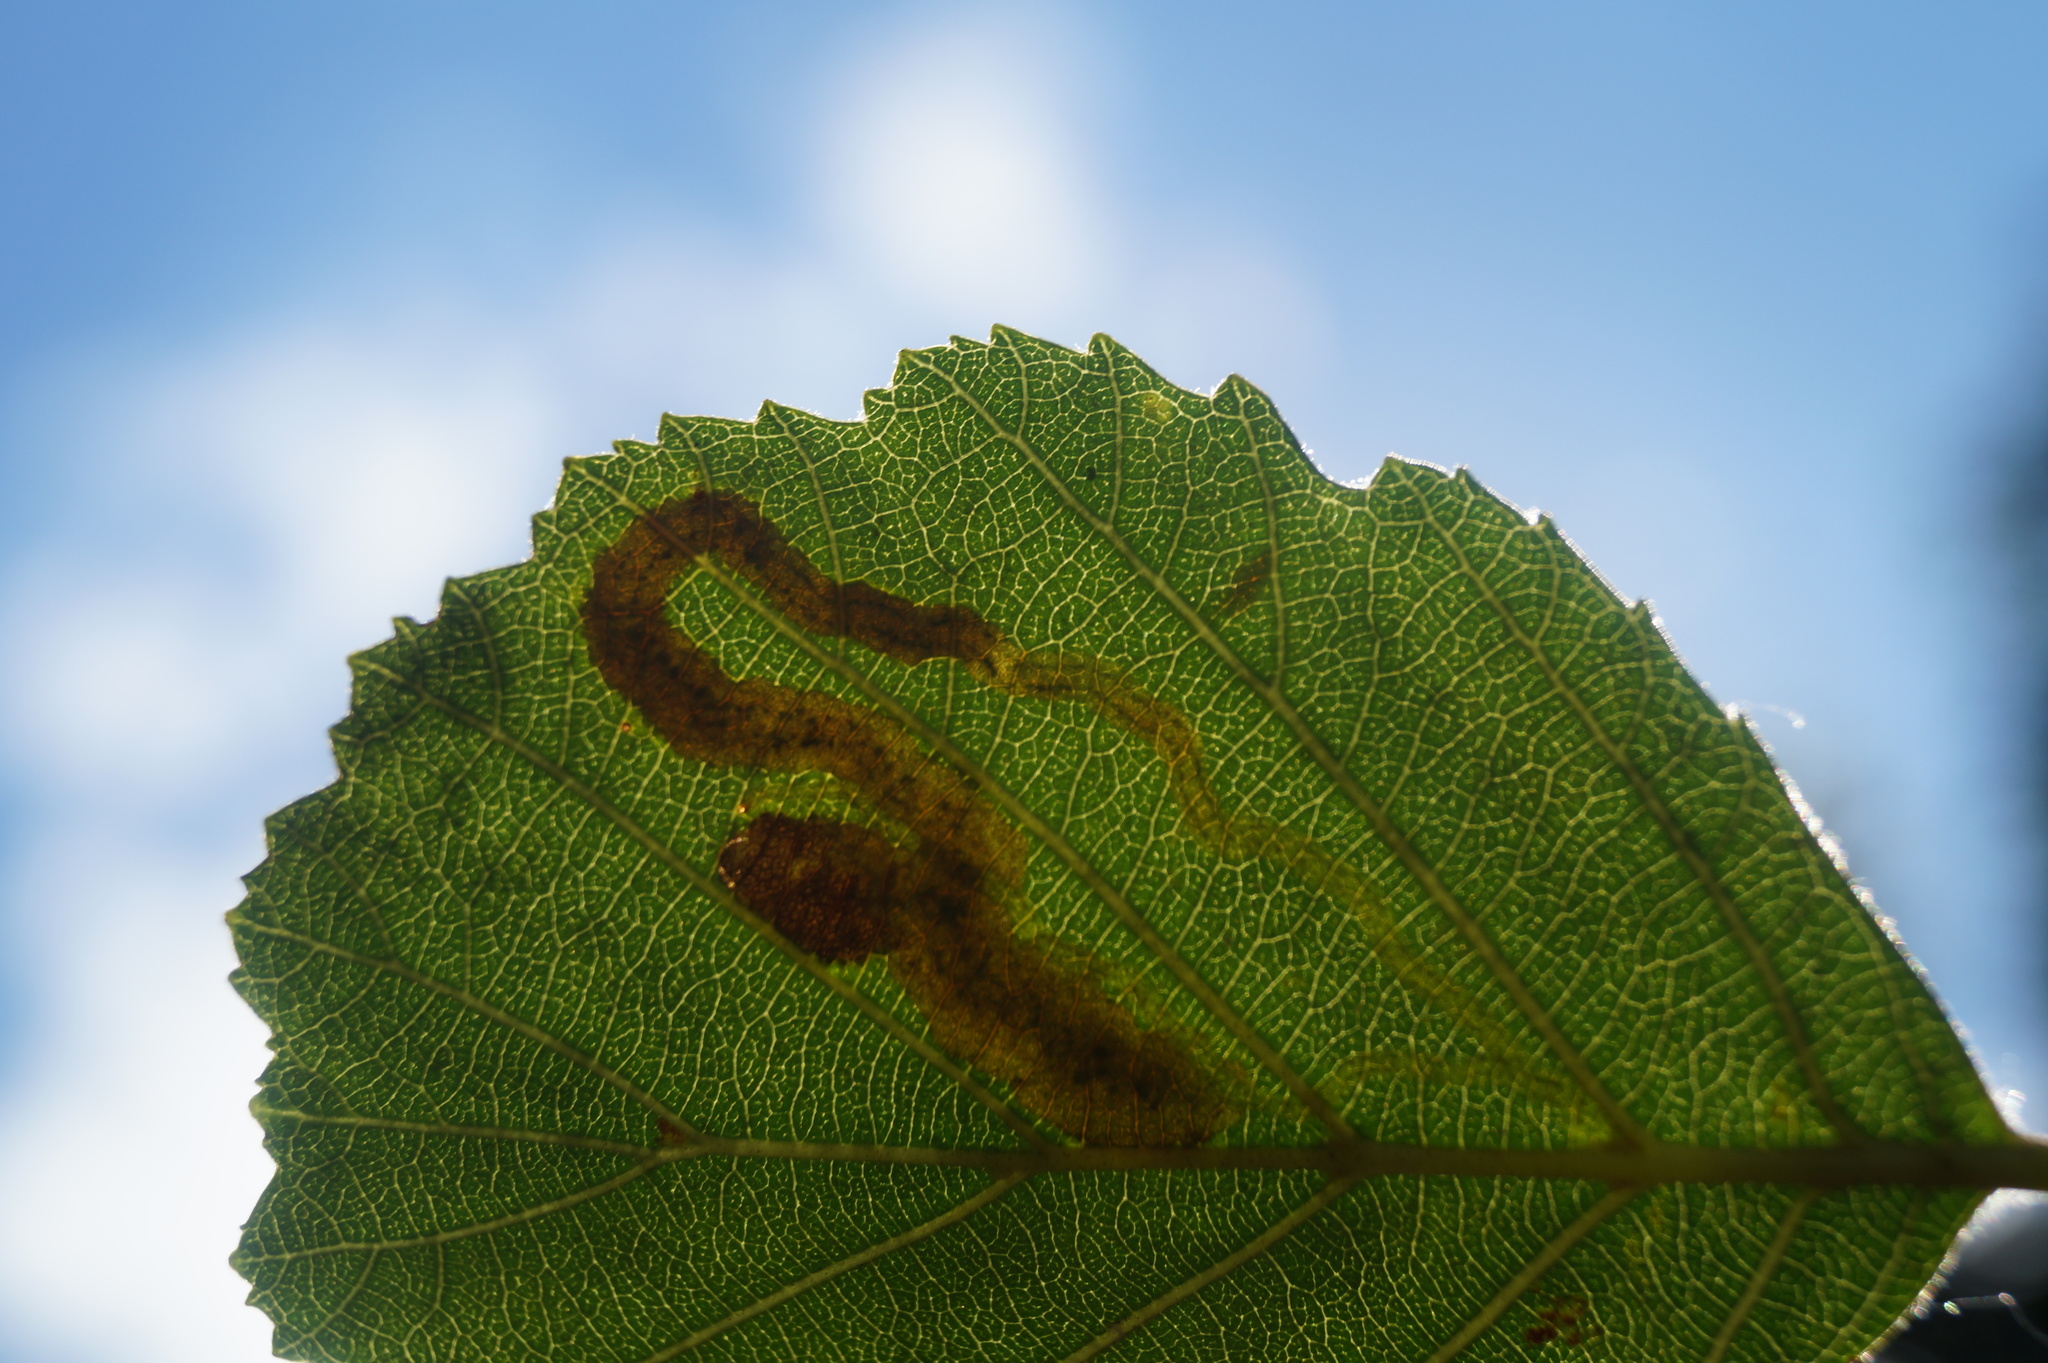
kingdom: Animalia
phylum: Arthropoda
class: Insecta
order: Diptera
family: Agromyzidae
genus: Agromyza
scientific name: Agromyza alnivora
